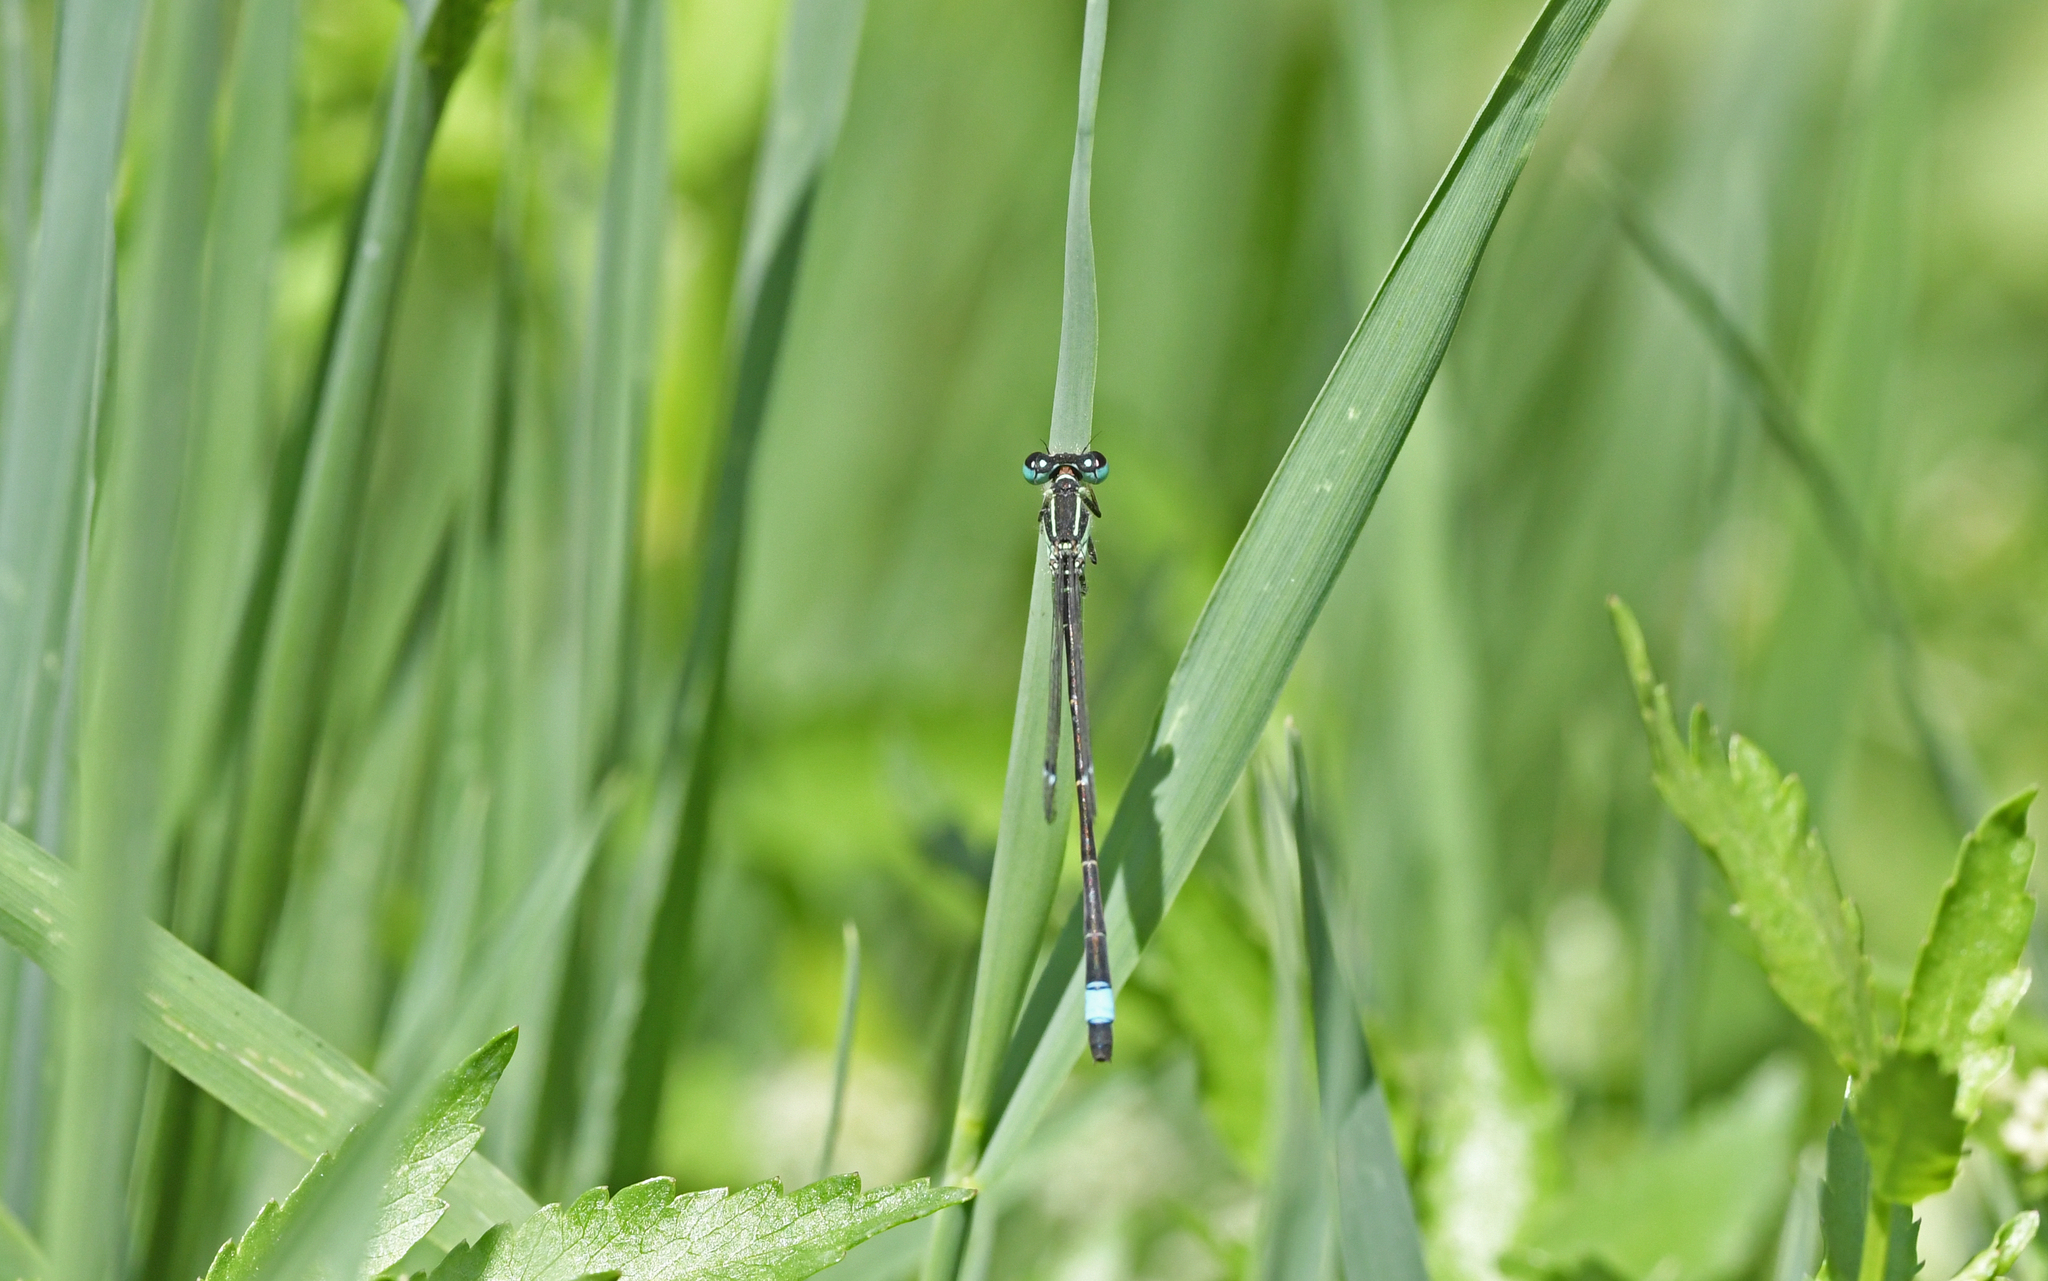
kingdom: Animalia
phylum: Arthropoda
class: Insecta
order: Odonata
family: Coenagrionidae
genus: Ischnura
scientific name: Ischnura genei
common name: Island bluetail
